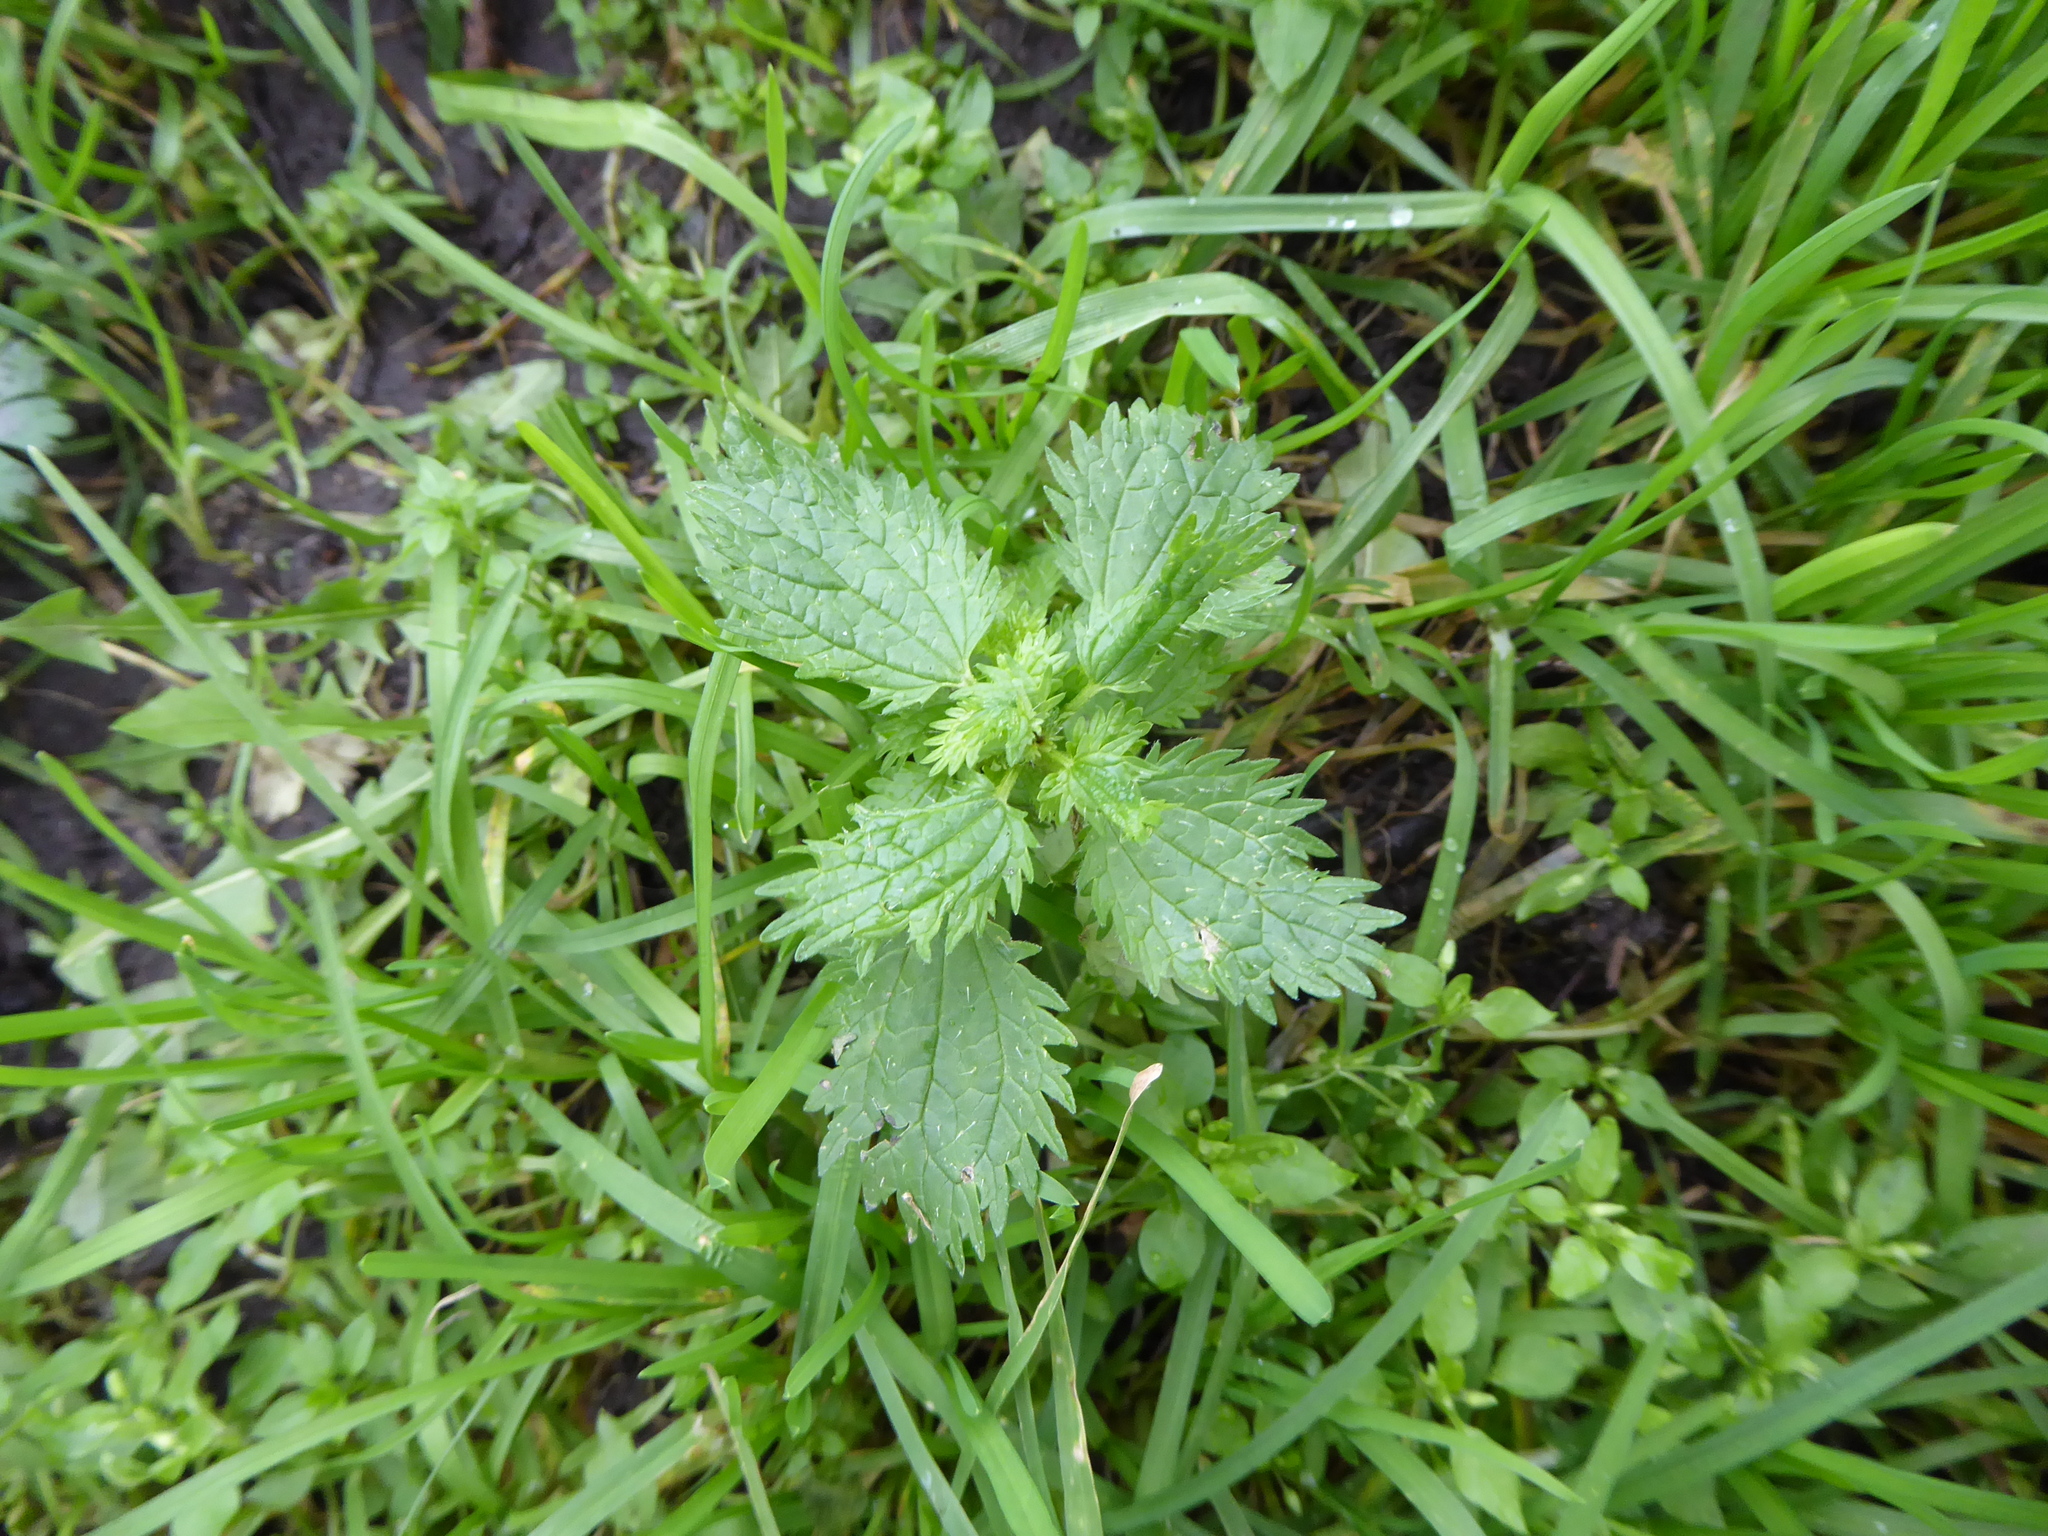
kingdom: Plantae
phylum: Tracheophyta
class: Magnoliopsida
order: Rosales
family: Urticaceae
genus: Urtica
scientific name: Urtica urens
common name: Dwarf nettle
